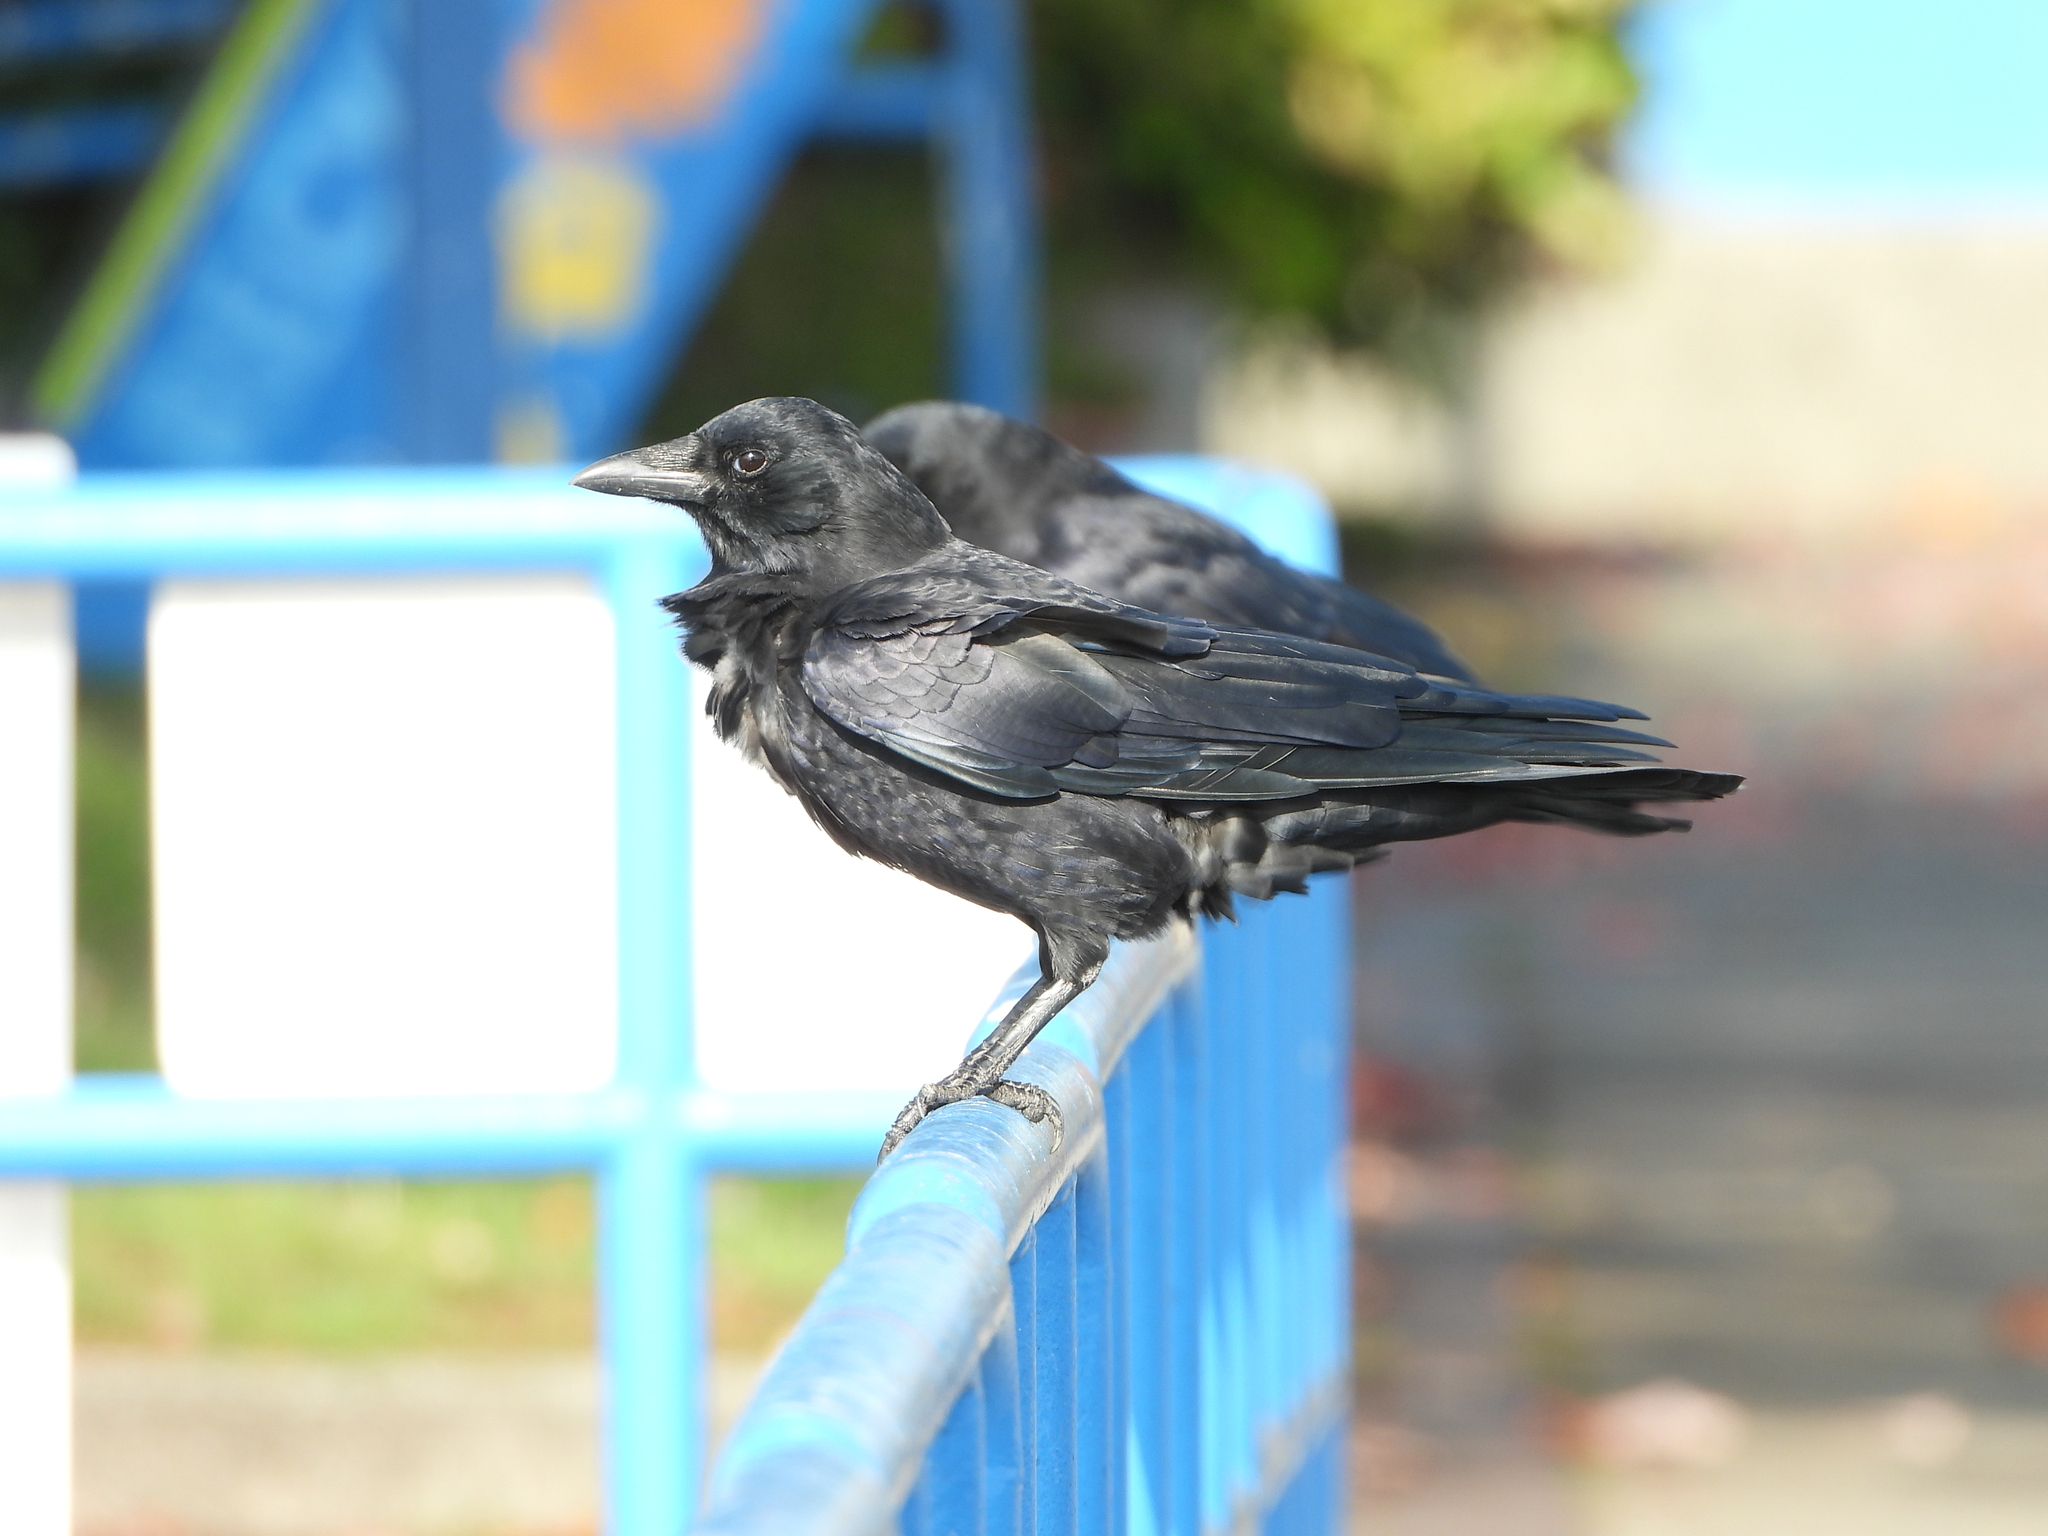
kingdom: Animalia
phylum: Chordata
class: Aves
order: Passeriformes
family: Corvidae
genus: Corvus
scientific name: Corvus brachyrhynchos
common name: American crow
